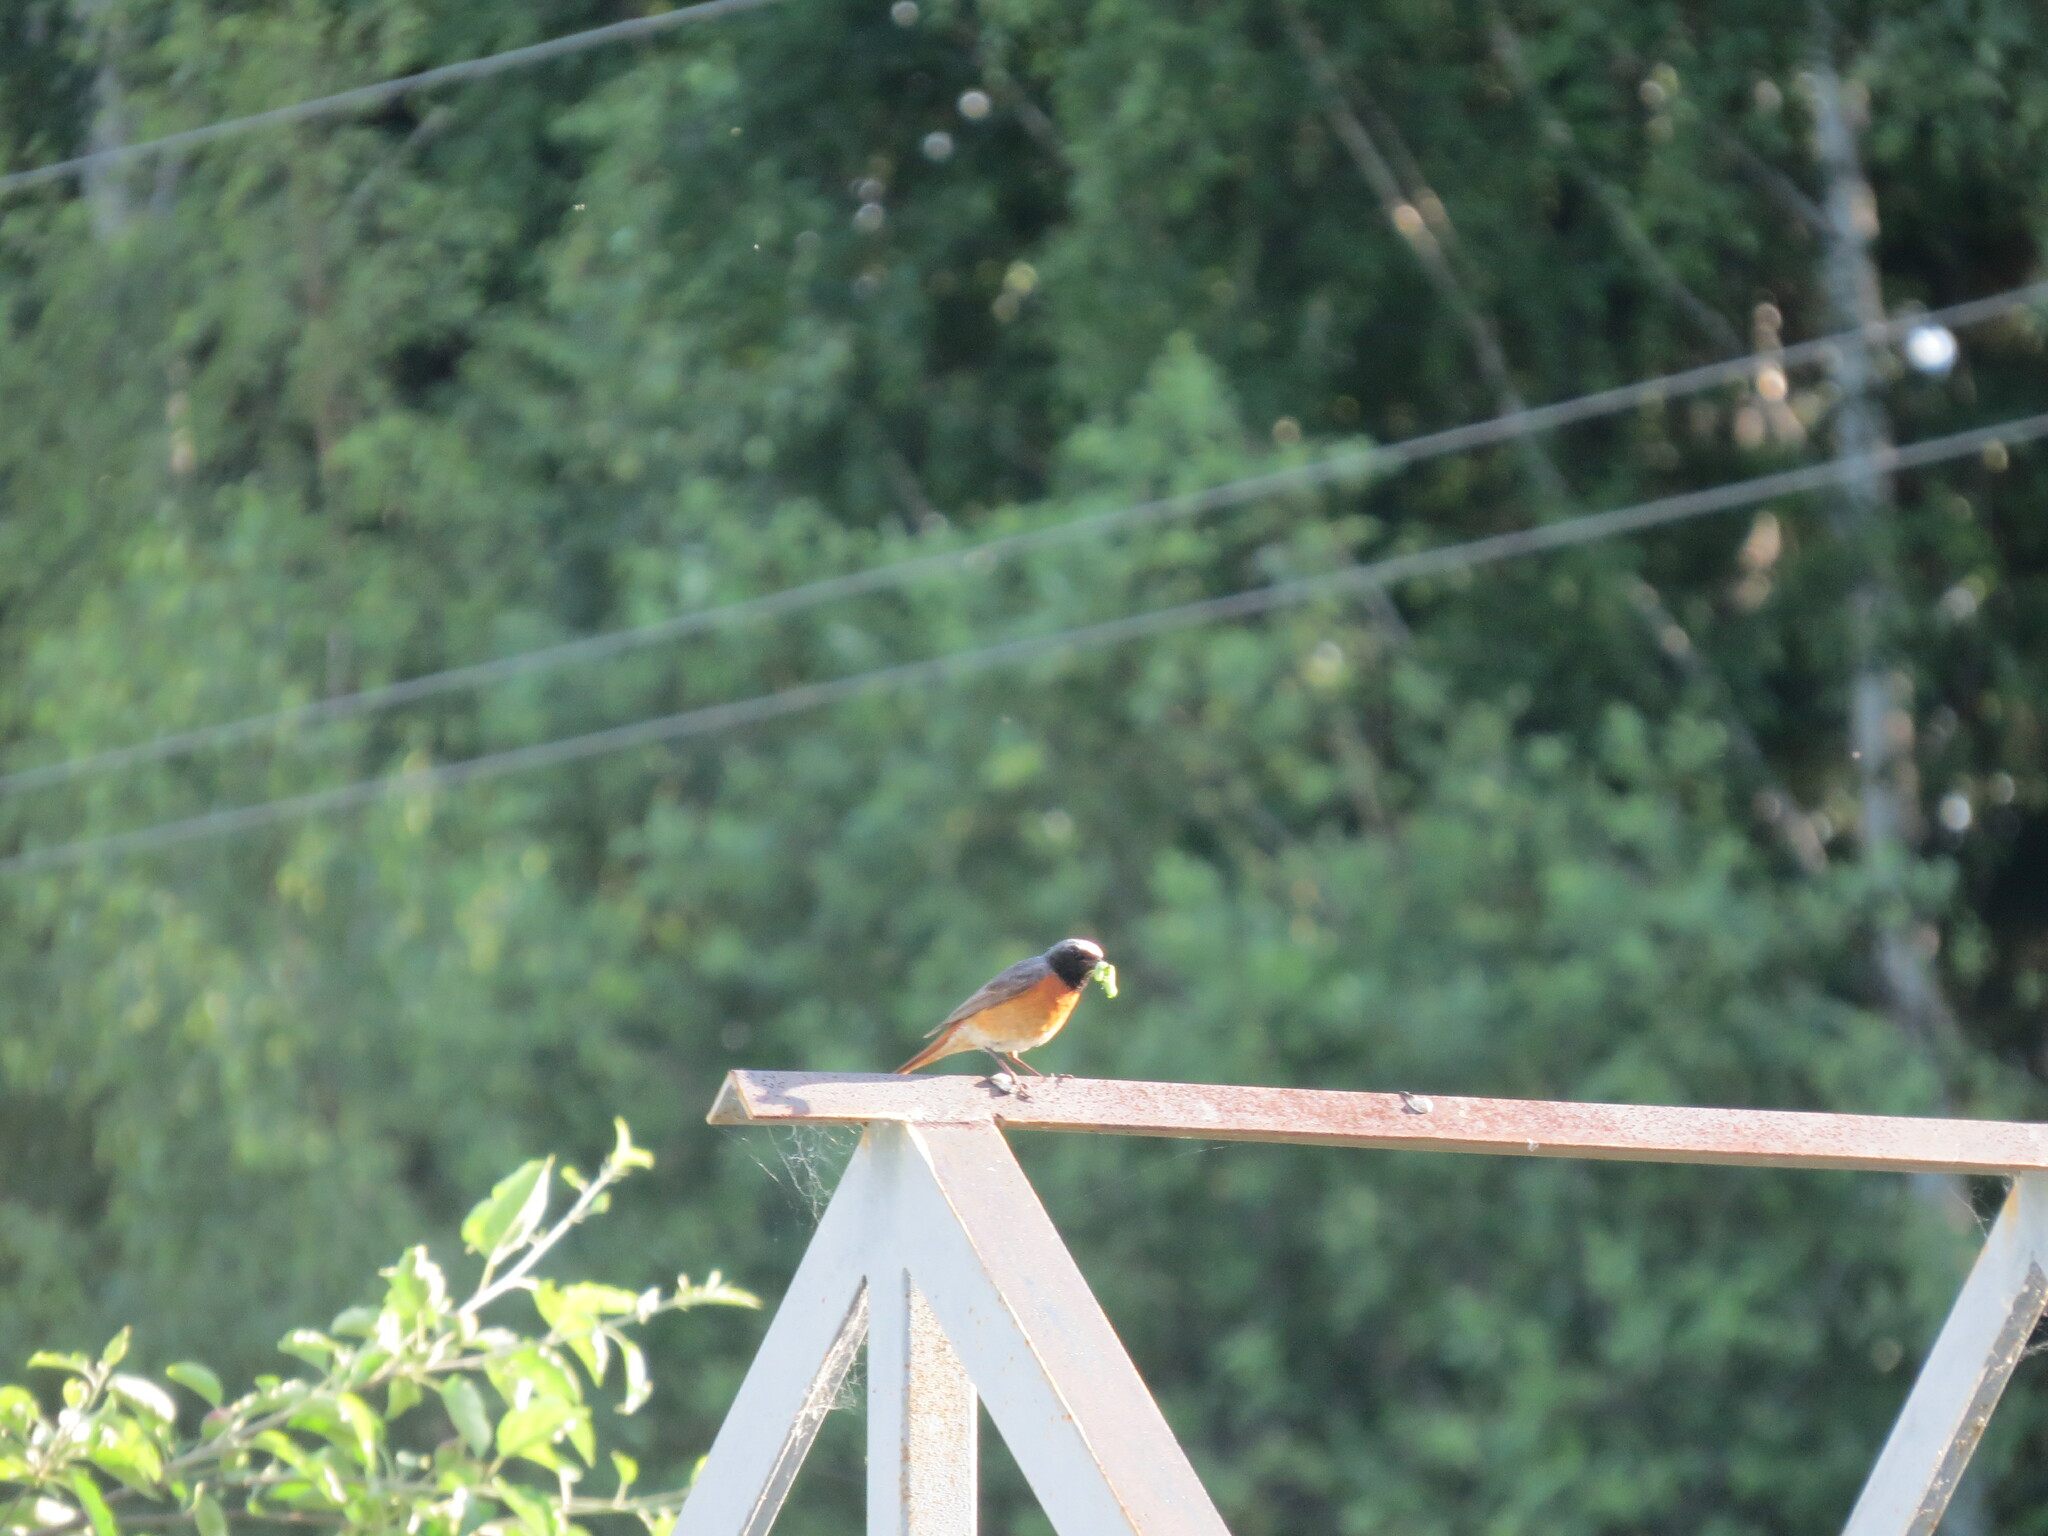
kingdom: Animalia
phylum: Chordata
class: Aves
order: Passeriformes
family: Muscicapidae
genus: Phoenicurus
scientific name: Phoenicurus phoenicurus
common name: Common redstart
